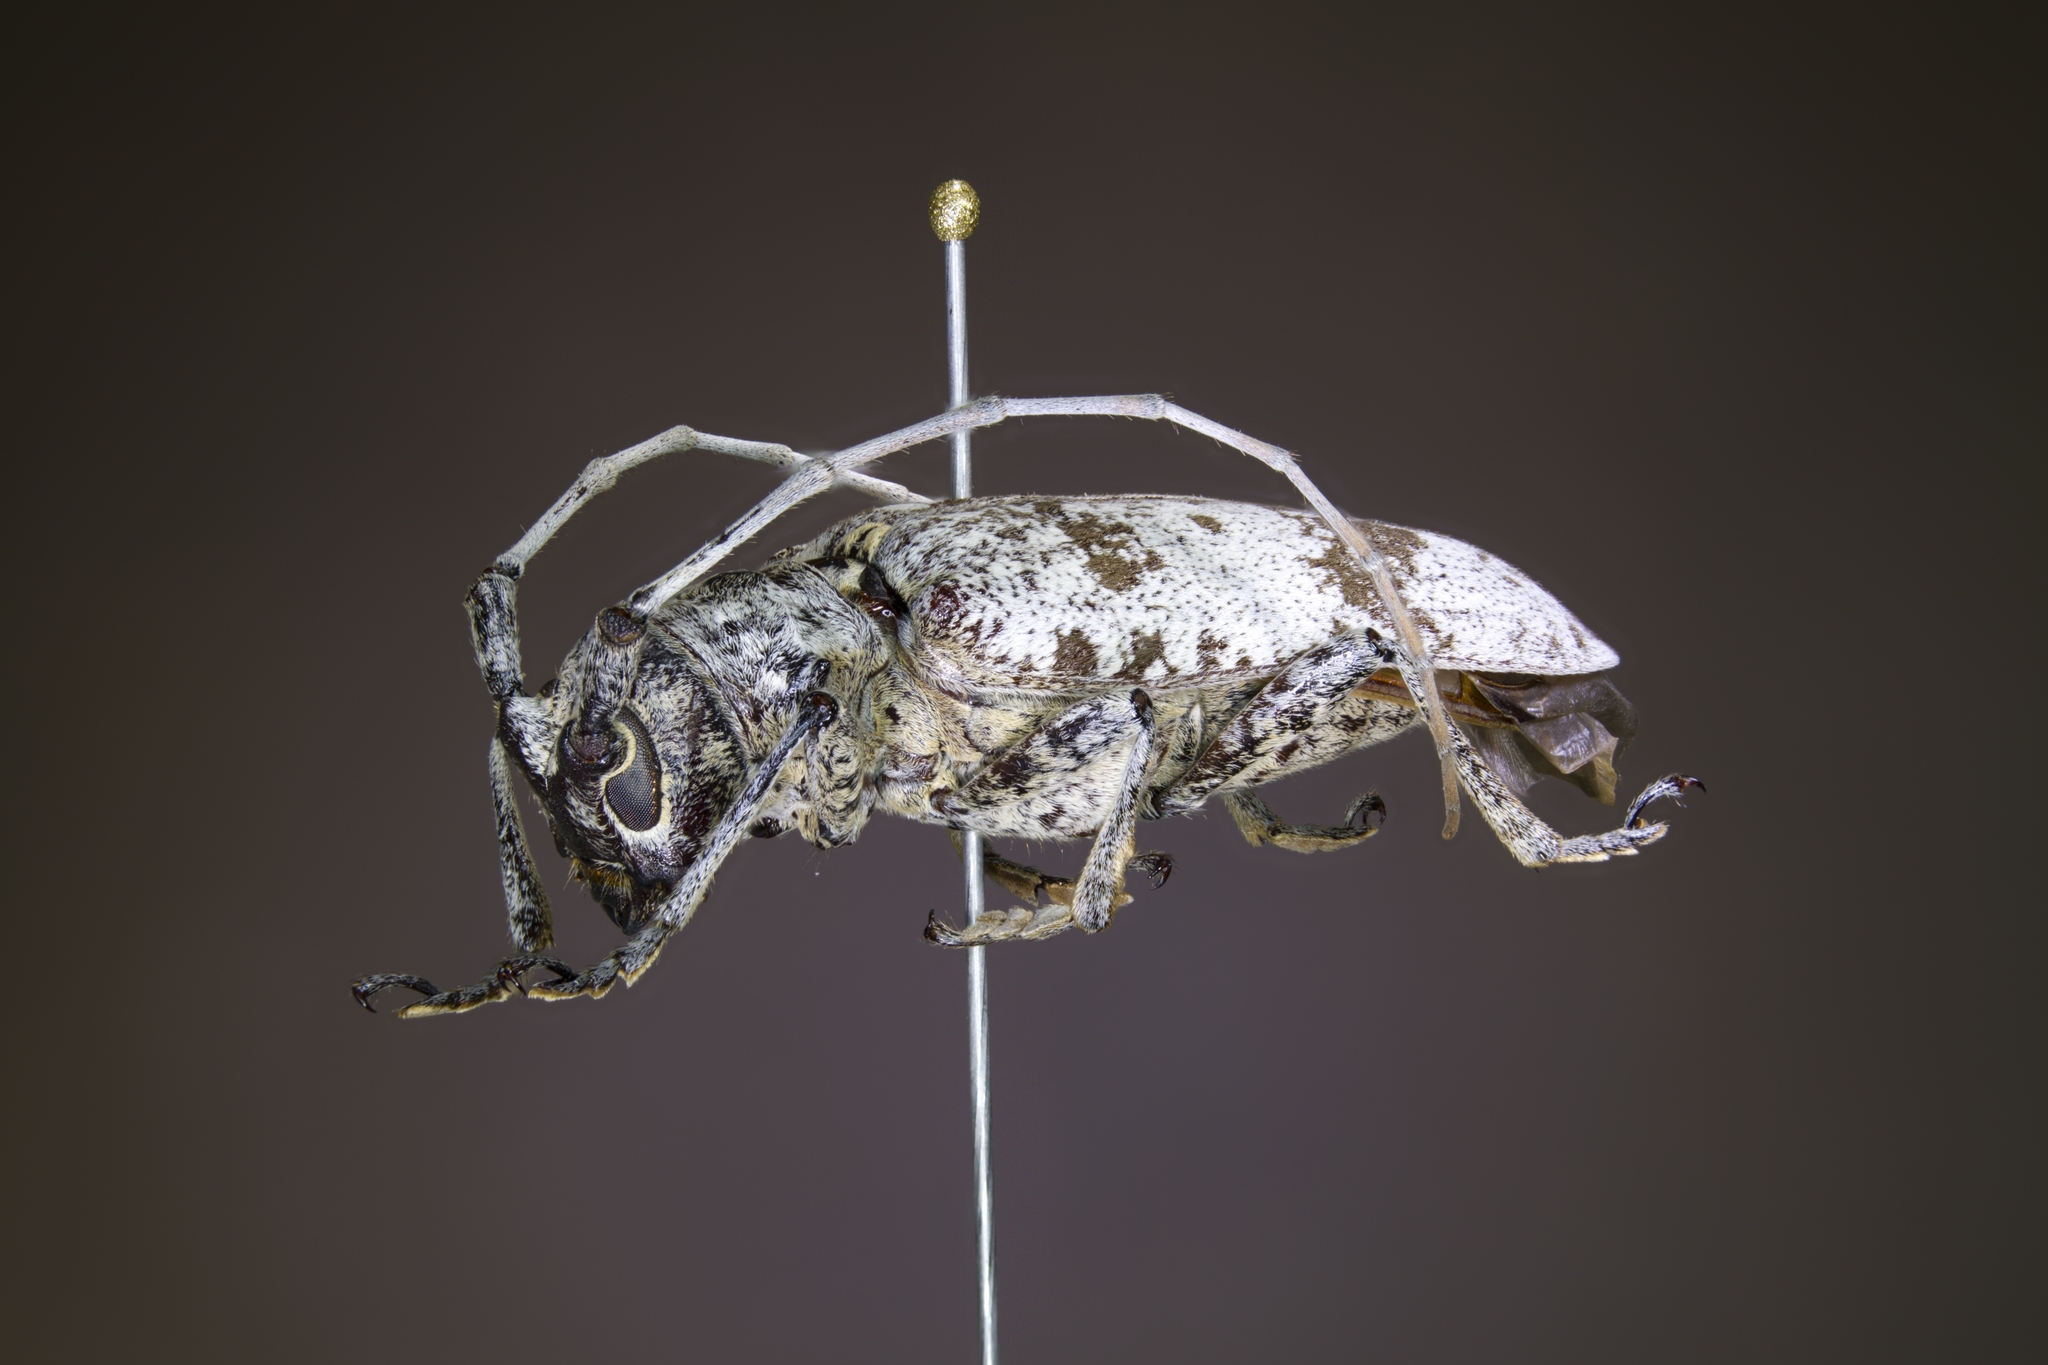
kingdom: Animalia
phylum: Arthropoda
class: Insecta
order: Coleoptera
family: Cerambycidae
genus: Goes
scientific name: Goes tigrinus
